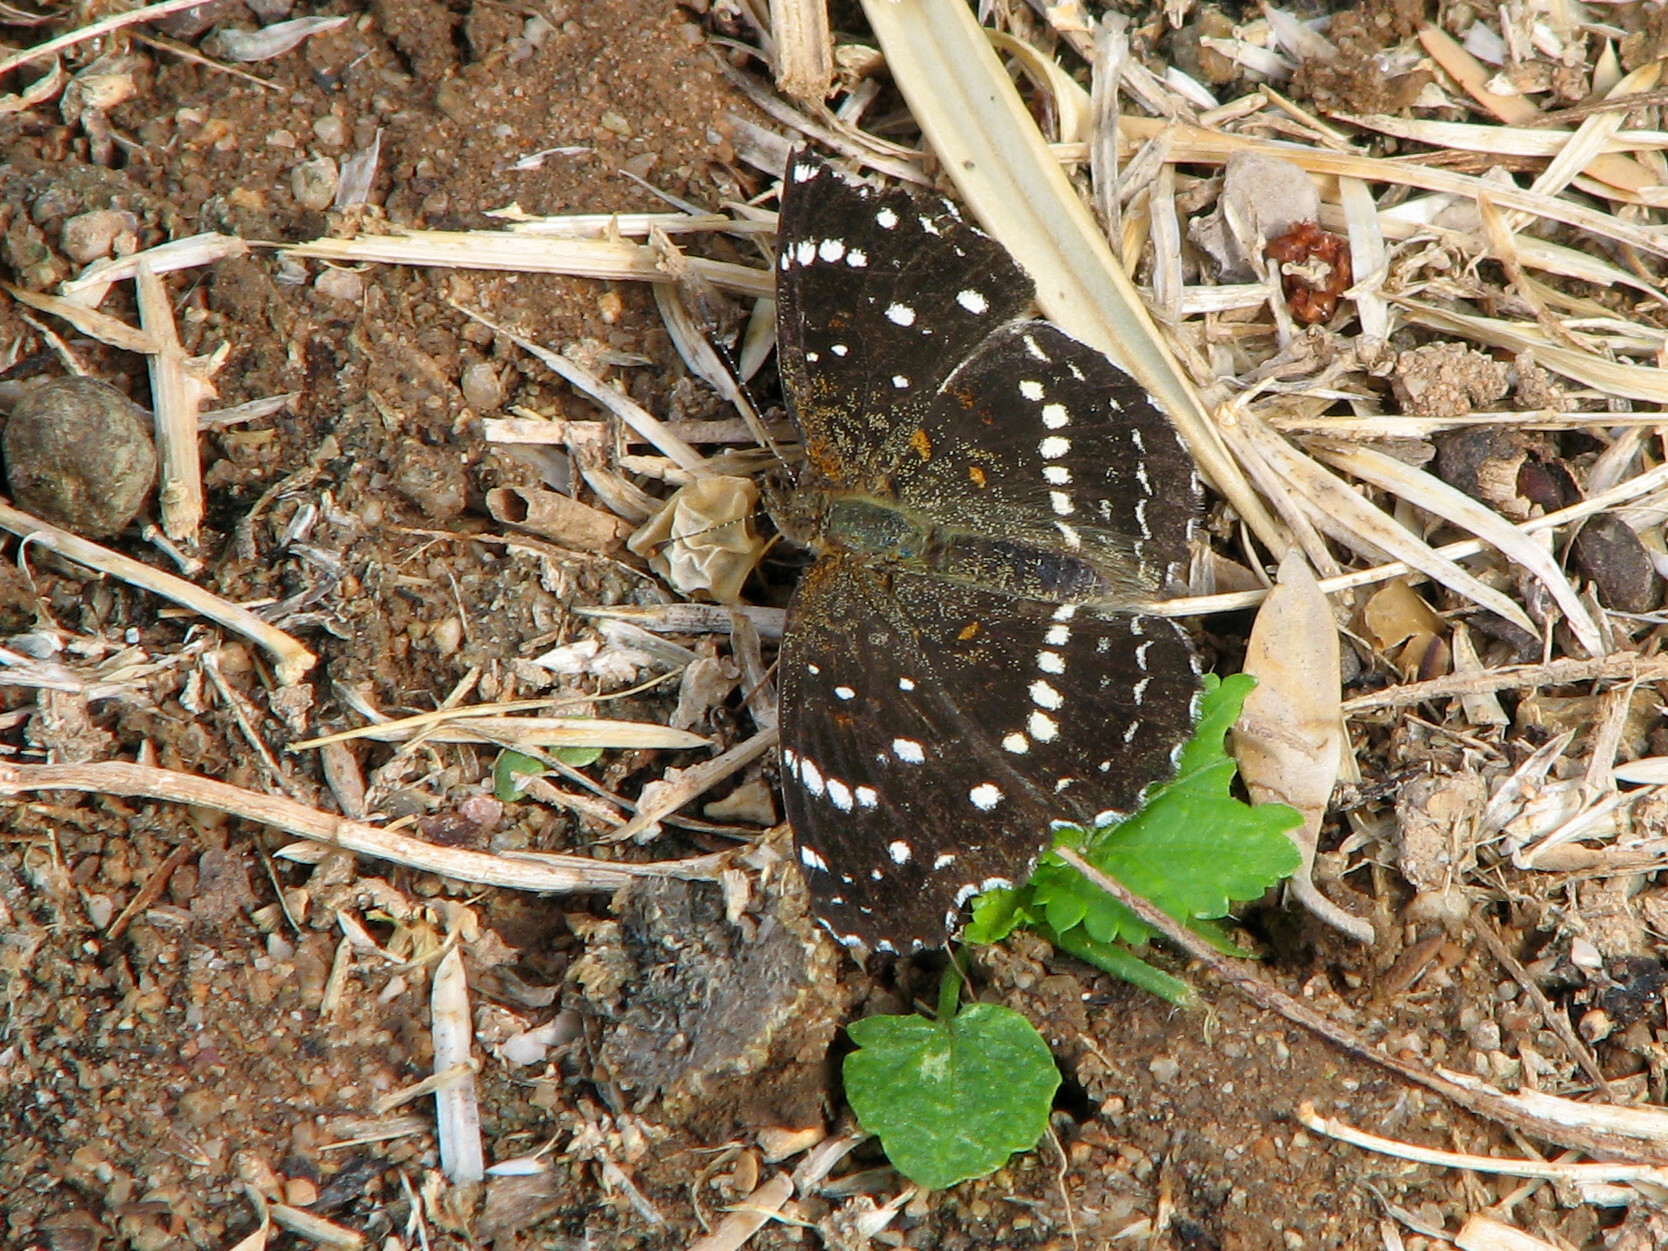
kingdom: Animalia
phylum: Arthropoda
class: Insecta
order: Lepidoptera
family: Nymphalidae
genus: Anthanassa
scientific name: Anthanassa texana
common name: Texan crescent
